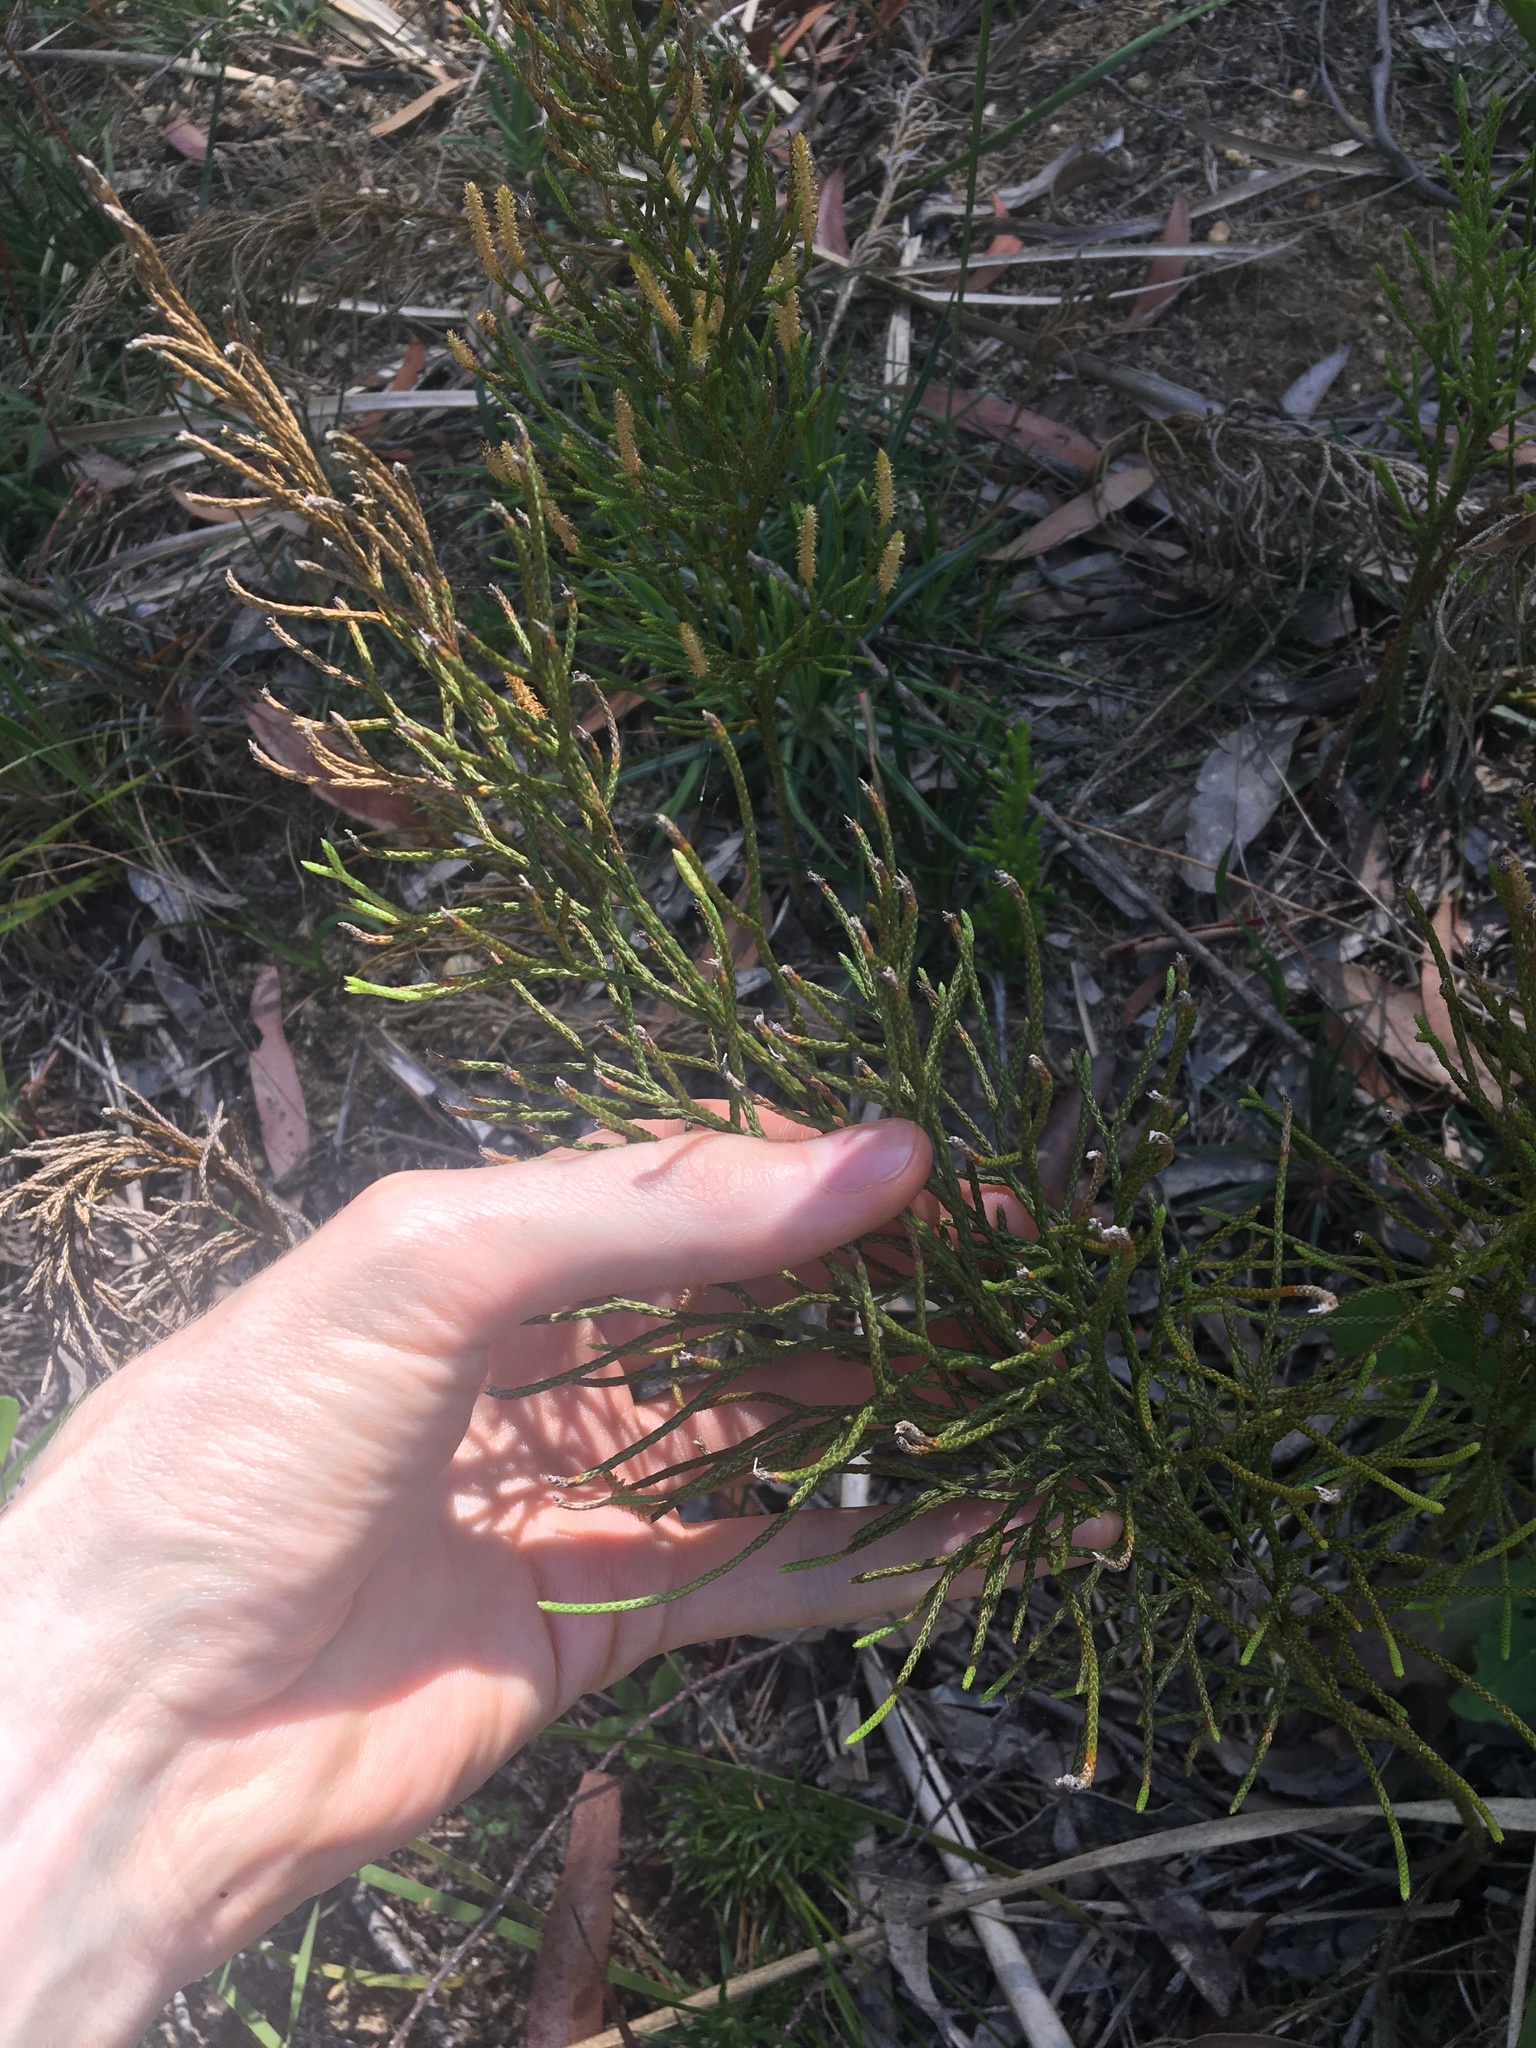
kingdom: Plantae
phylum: Tracheophyta
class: Lycopodiopsida
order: Lycopodiales
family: Lycopodiaceae
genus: Pseudolycopodium
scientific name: Pseudolycopodium densum
